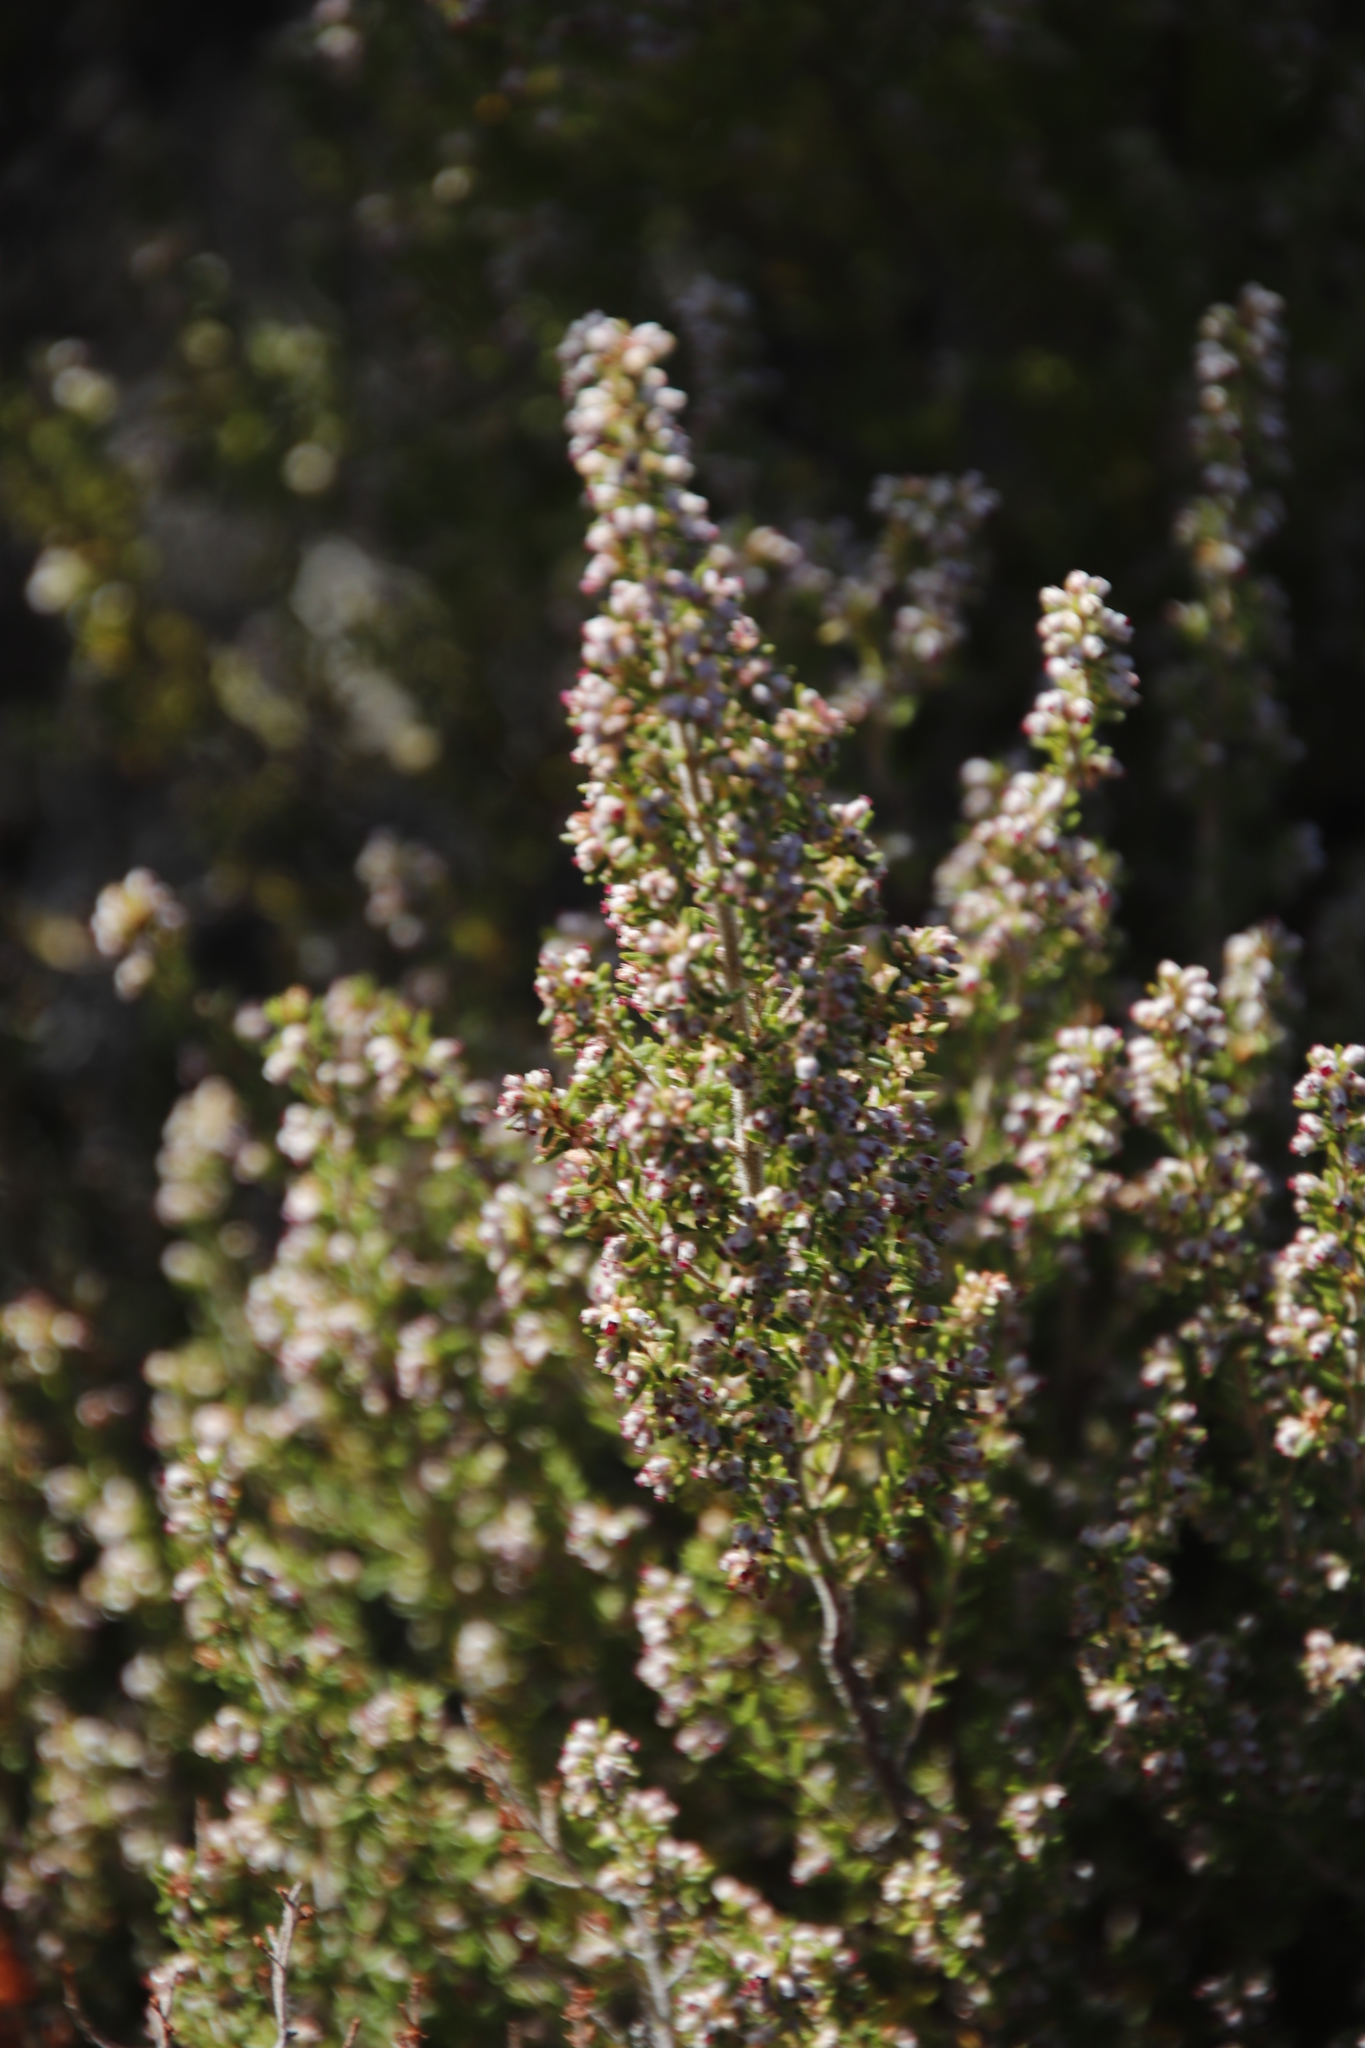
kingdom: Plantae
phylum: Tracheophyta
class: Magnoliopsida
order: Ericales
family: Ericaceae
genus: Erica
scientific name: Erica hispidula
